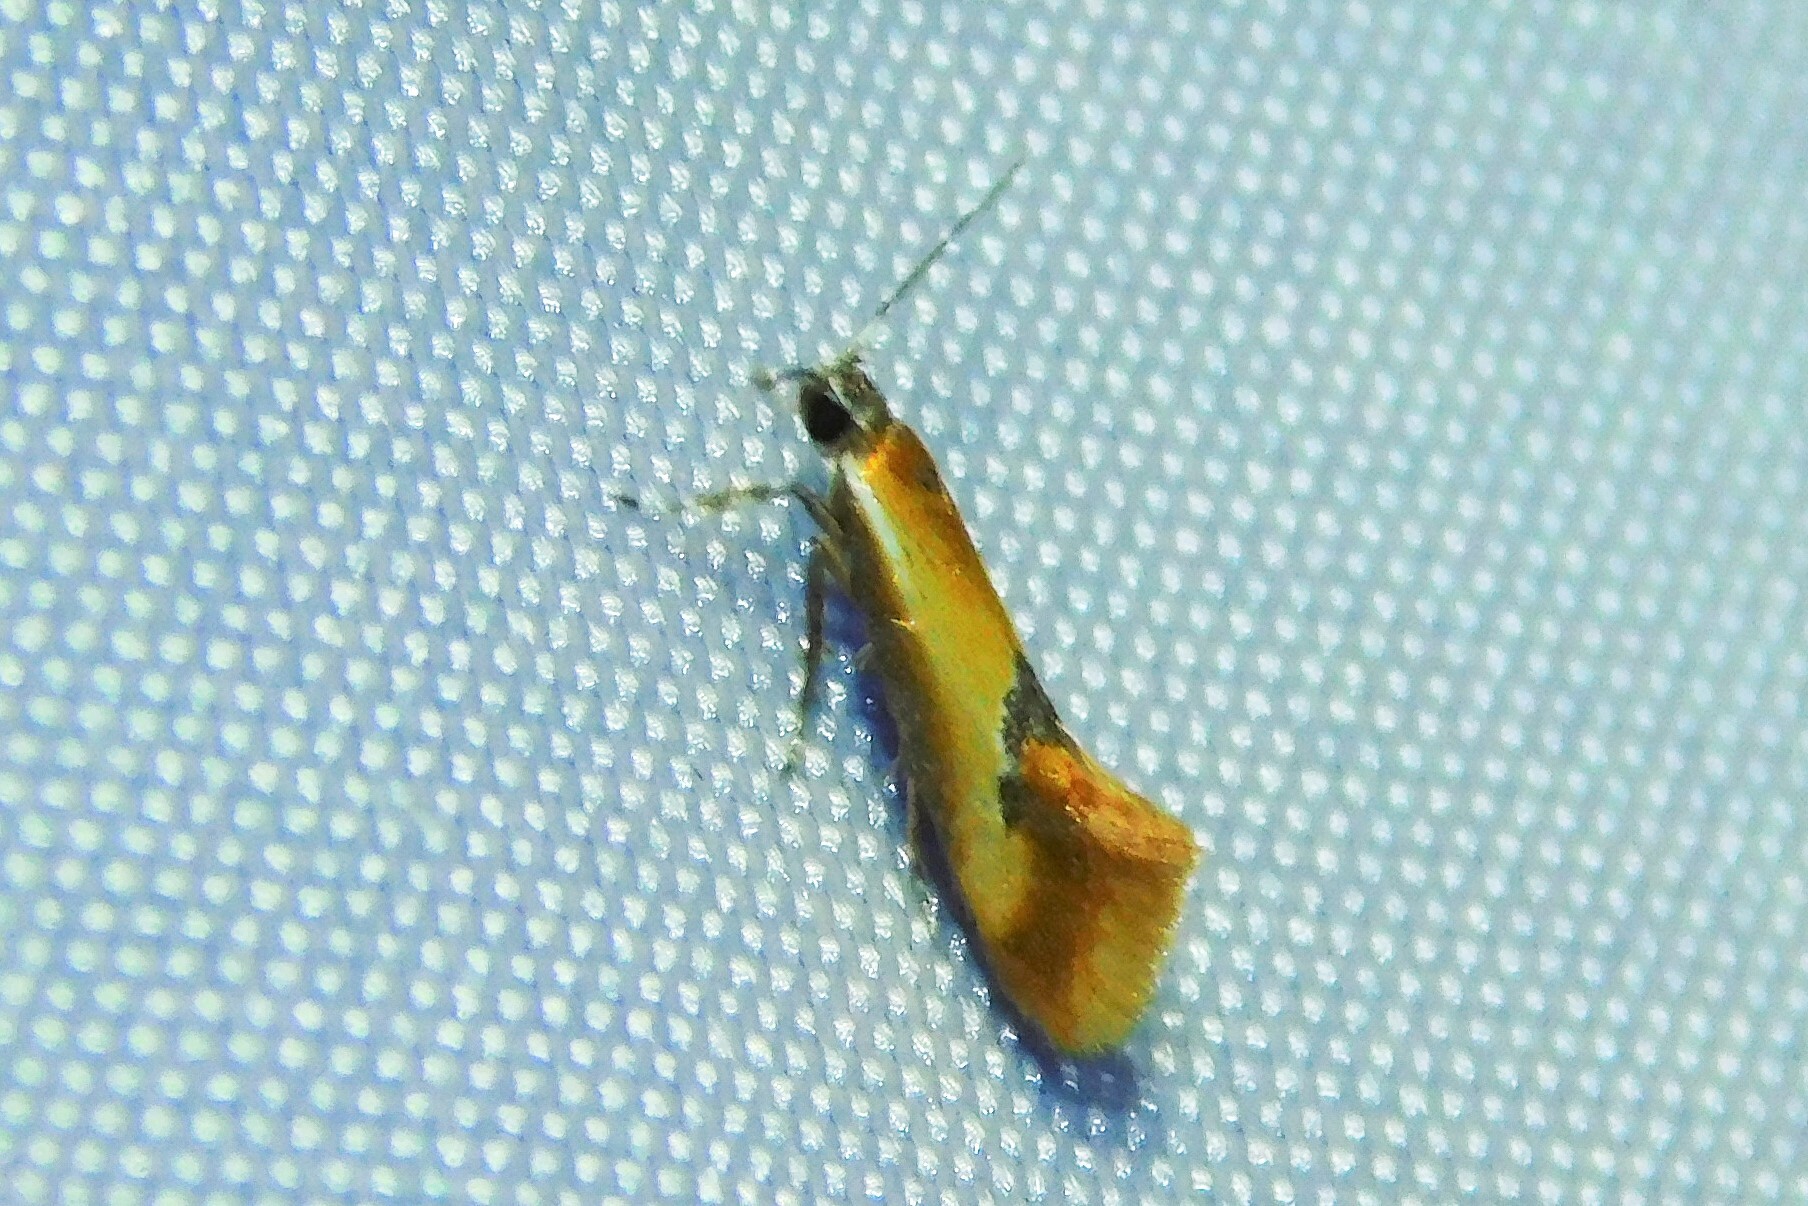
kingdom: Animalia
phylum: Arthropoda
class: Insecta
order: Lepidoptera
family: Oecophoridae
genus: Batia
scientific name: Batia lunaris
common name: Moth
